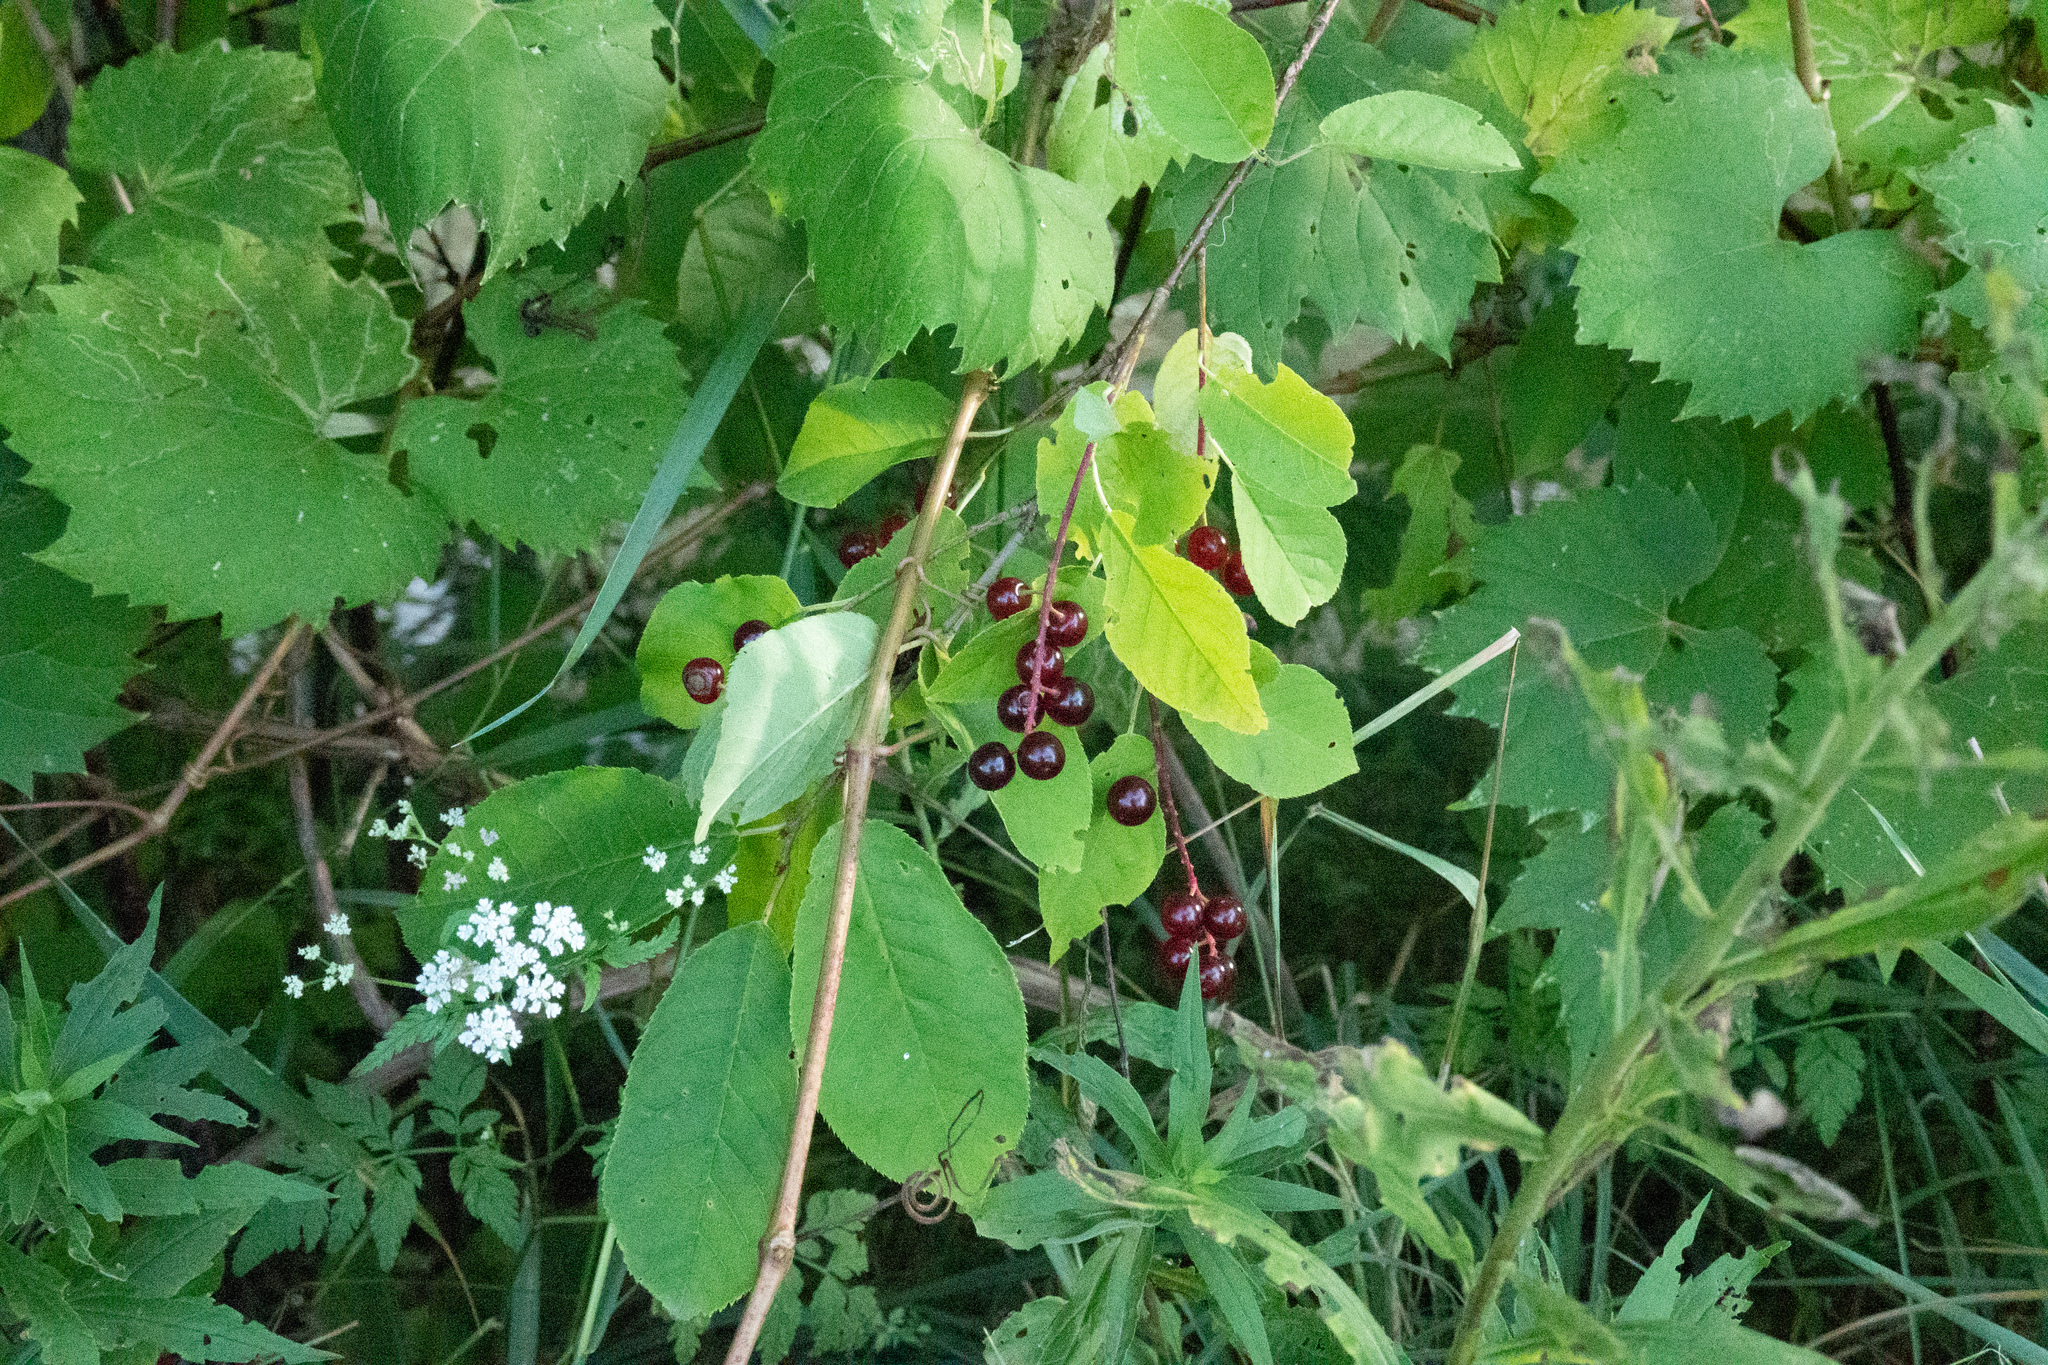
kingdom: Plantae
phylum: Tracheophyta
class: Magnoliopsida
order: Rosales
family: Rosaceae
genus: Prunus
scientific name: Prunus virginiana
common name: Chokecherry
